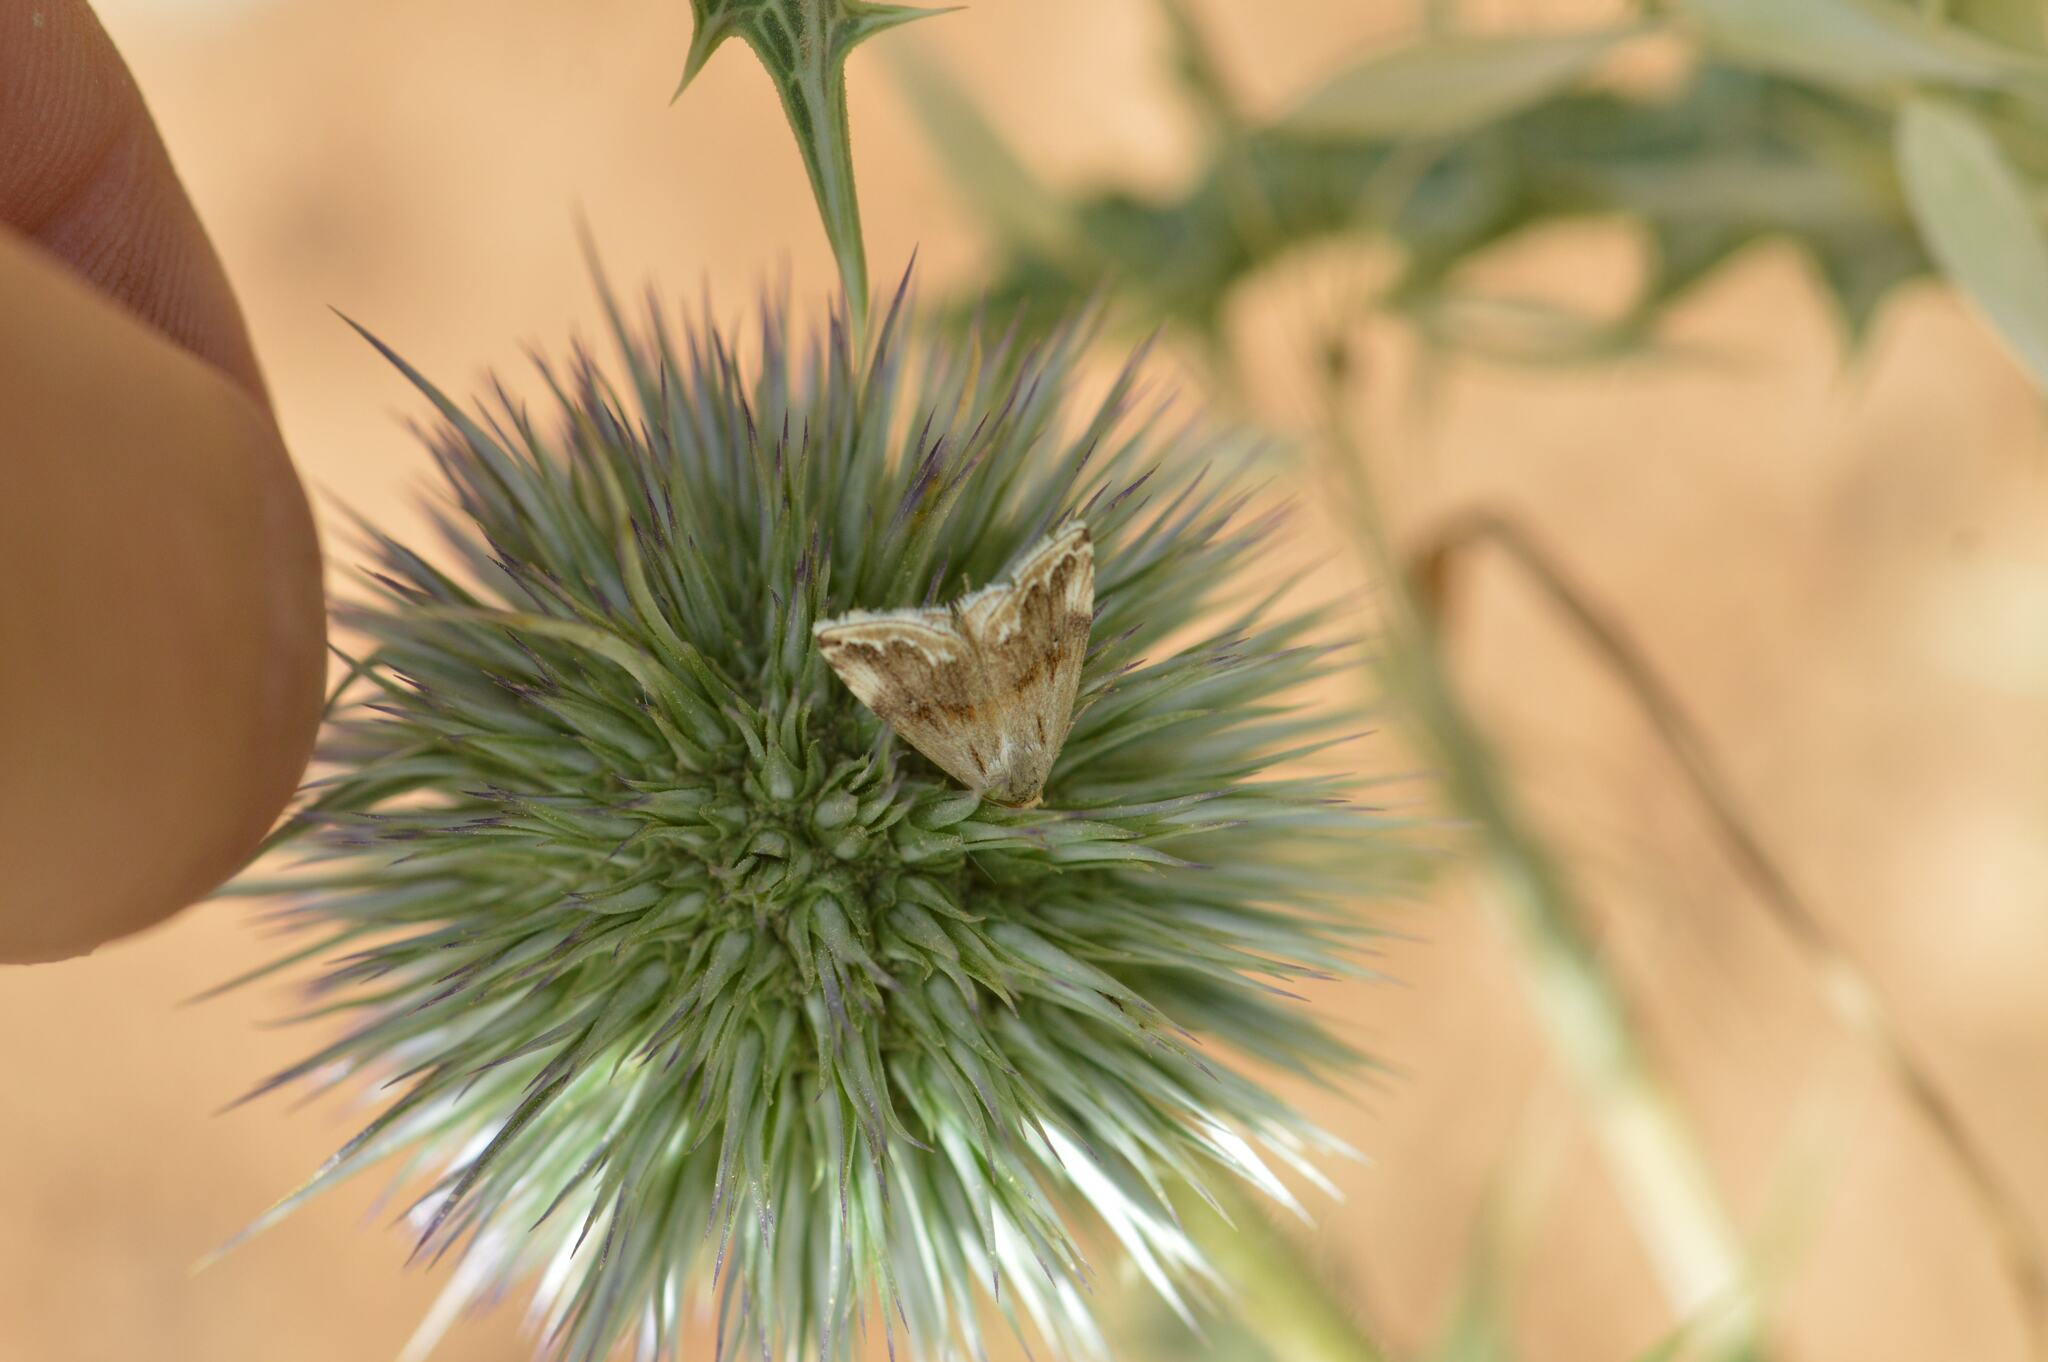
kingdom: Animalia
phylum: Arthropoda
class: Insecta
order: Lepidoptera
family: Noctuidae
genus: Eublemma
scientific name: Eublemma ostrina
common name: Purple marbled
